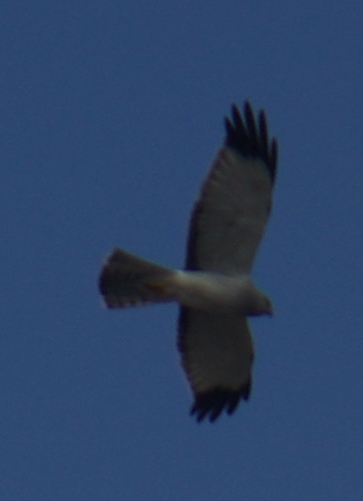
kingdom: Animalia
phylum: Chordata
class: Aves
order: Accipitriformes
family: Accipitridae
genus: Circus
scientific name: Circus cyaneus
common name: Hen harrier
